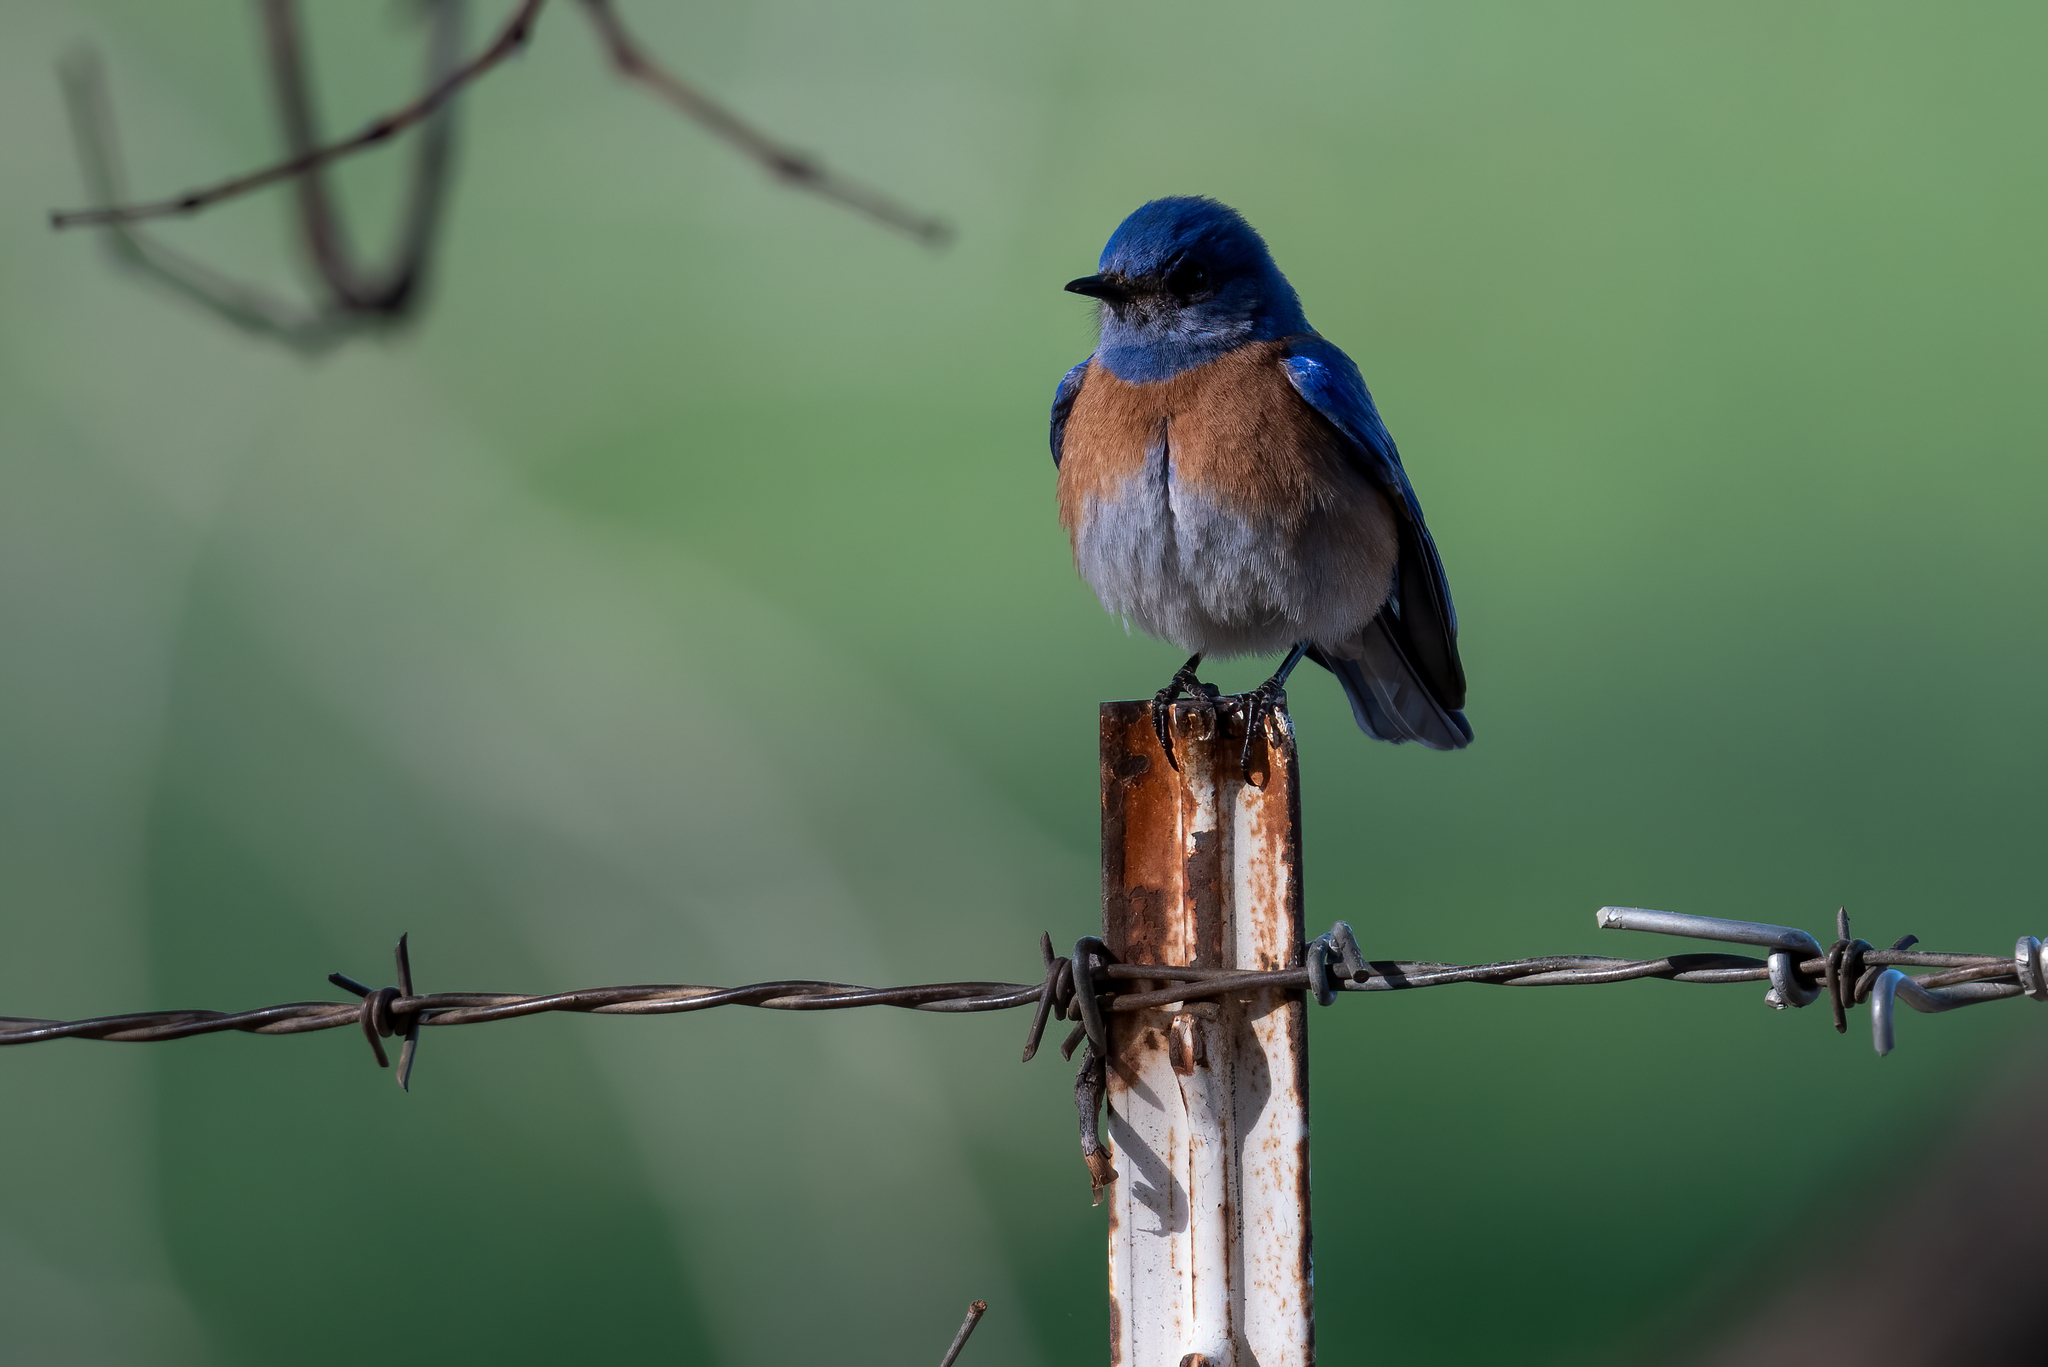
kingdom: Animalia
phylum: Chordata
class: Aves
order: Passeriformes
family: Turdidae
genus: Sialia
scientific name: Sialia mexicana
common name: Western bluebird
